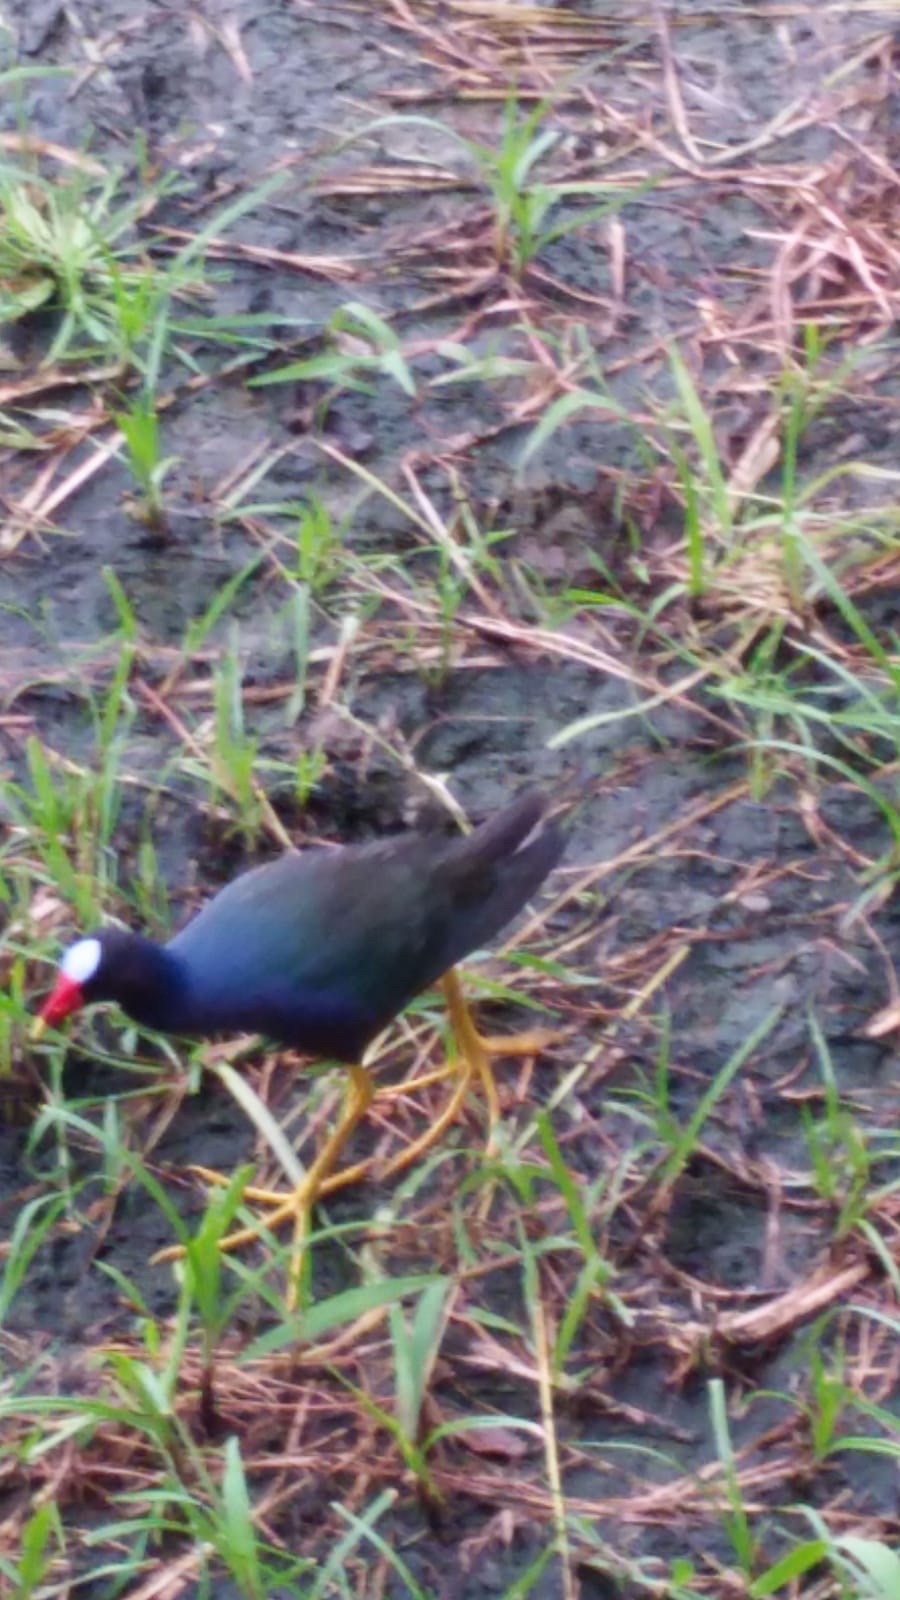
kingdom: Animalia
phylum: Chordata
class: Aves
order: Gruiformes
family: Rallidae
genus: Porphyrio
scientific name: Porphyrio martinica
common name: Purple gallinule
